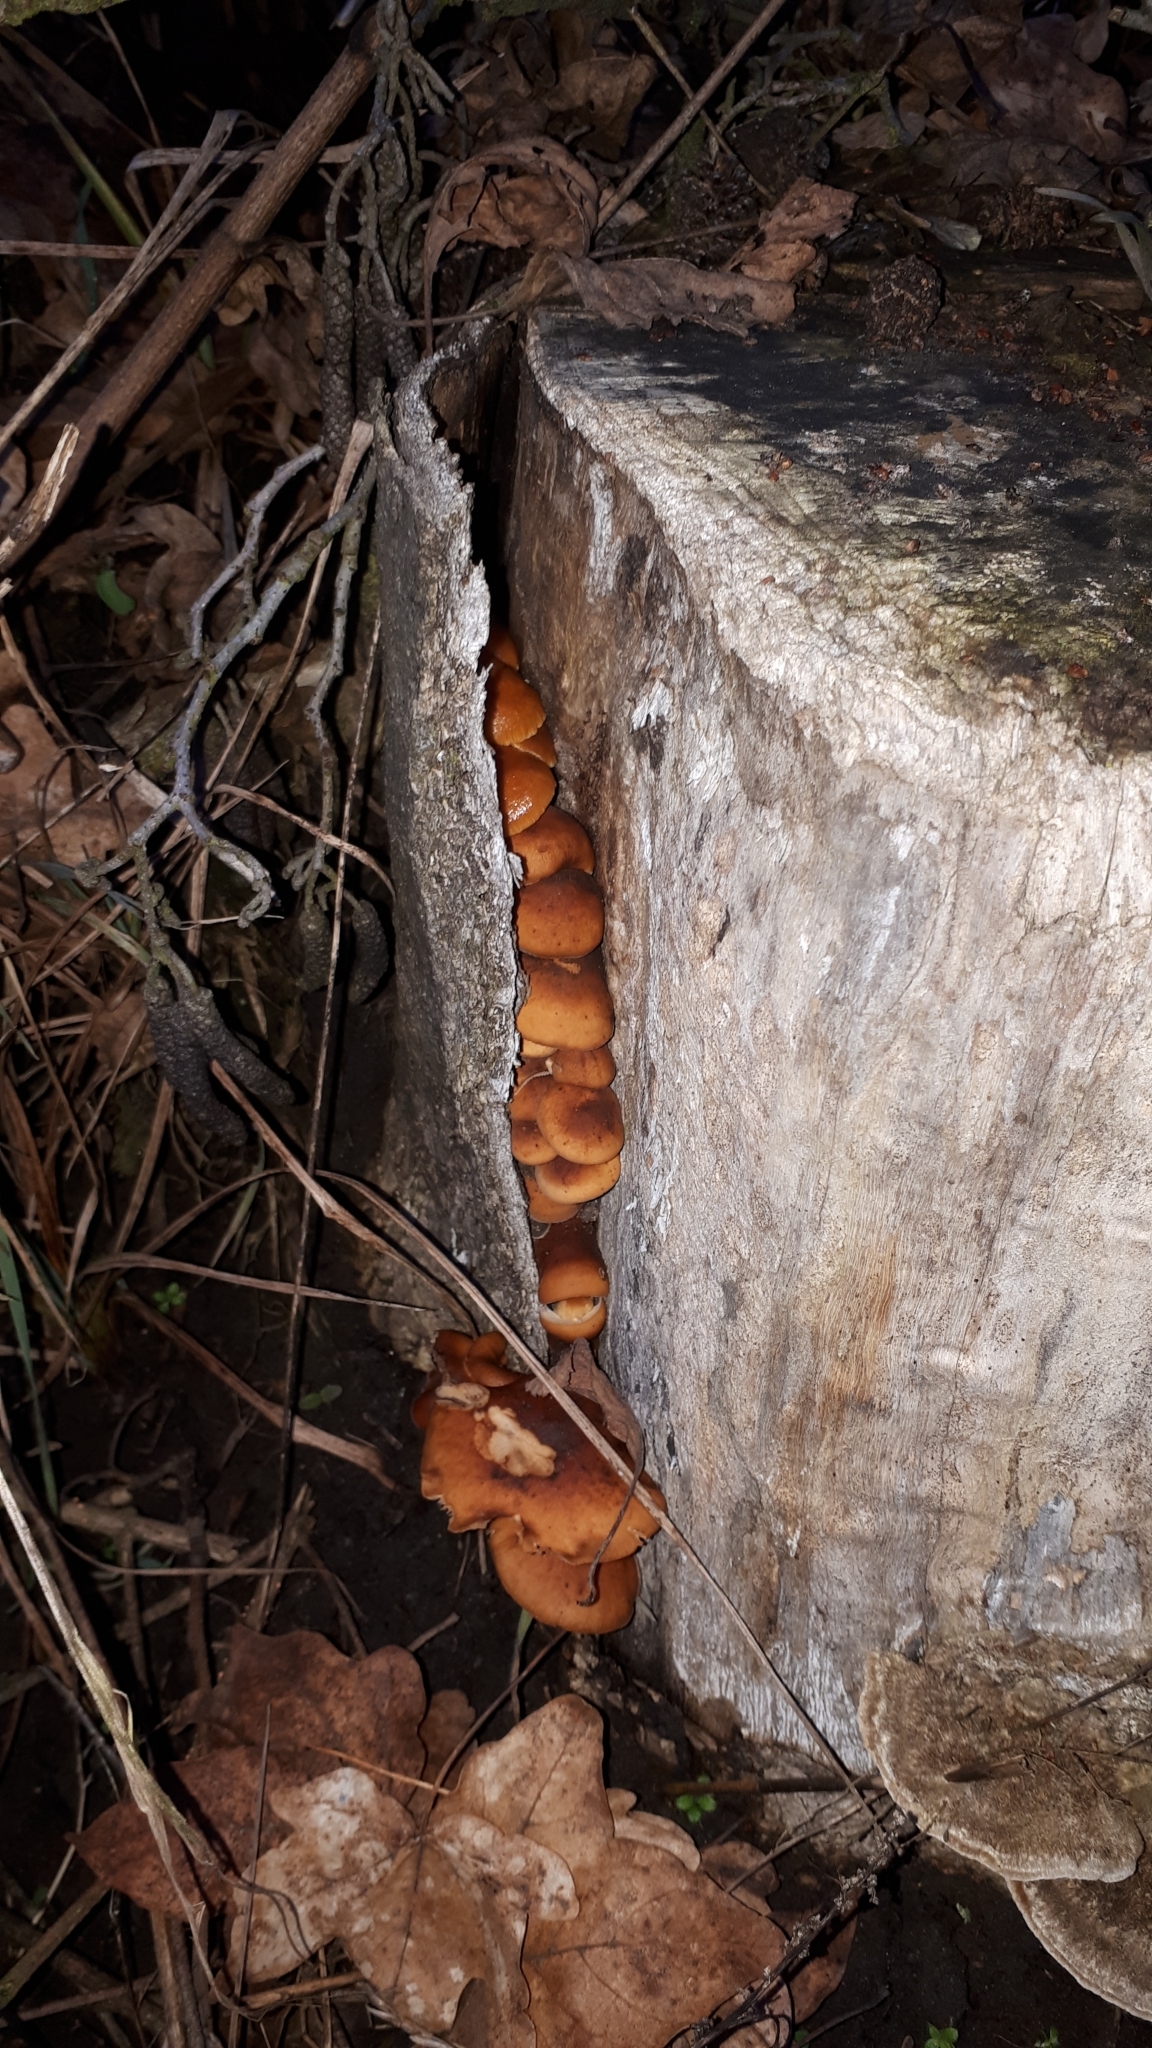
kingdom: Fungi
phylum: Basidiomycota
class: Agaricomycetes
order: Agaricales
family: Physalacriaceae
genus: Flammulina
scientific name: Flammulina
